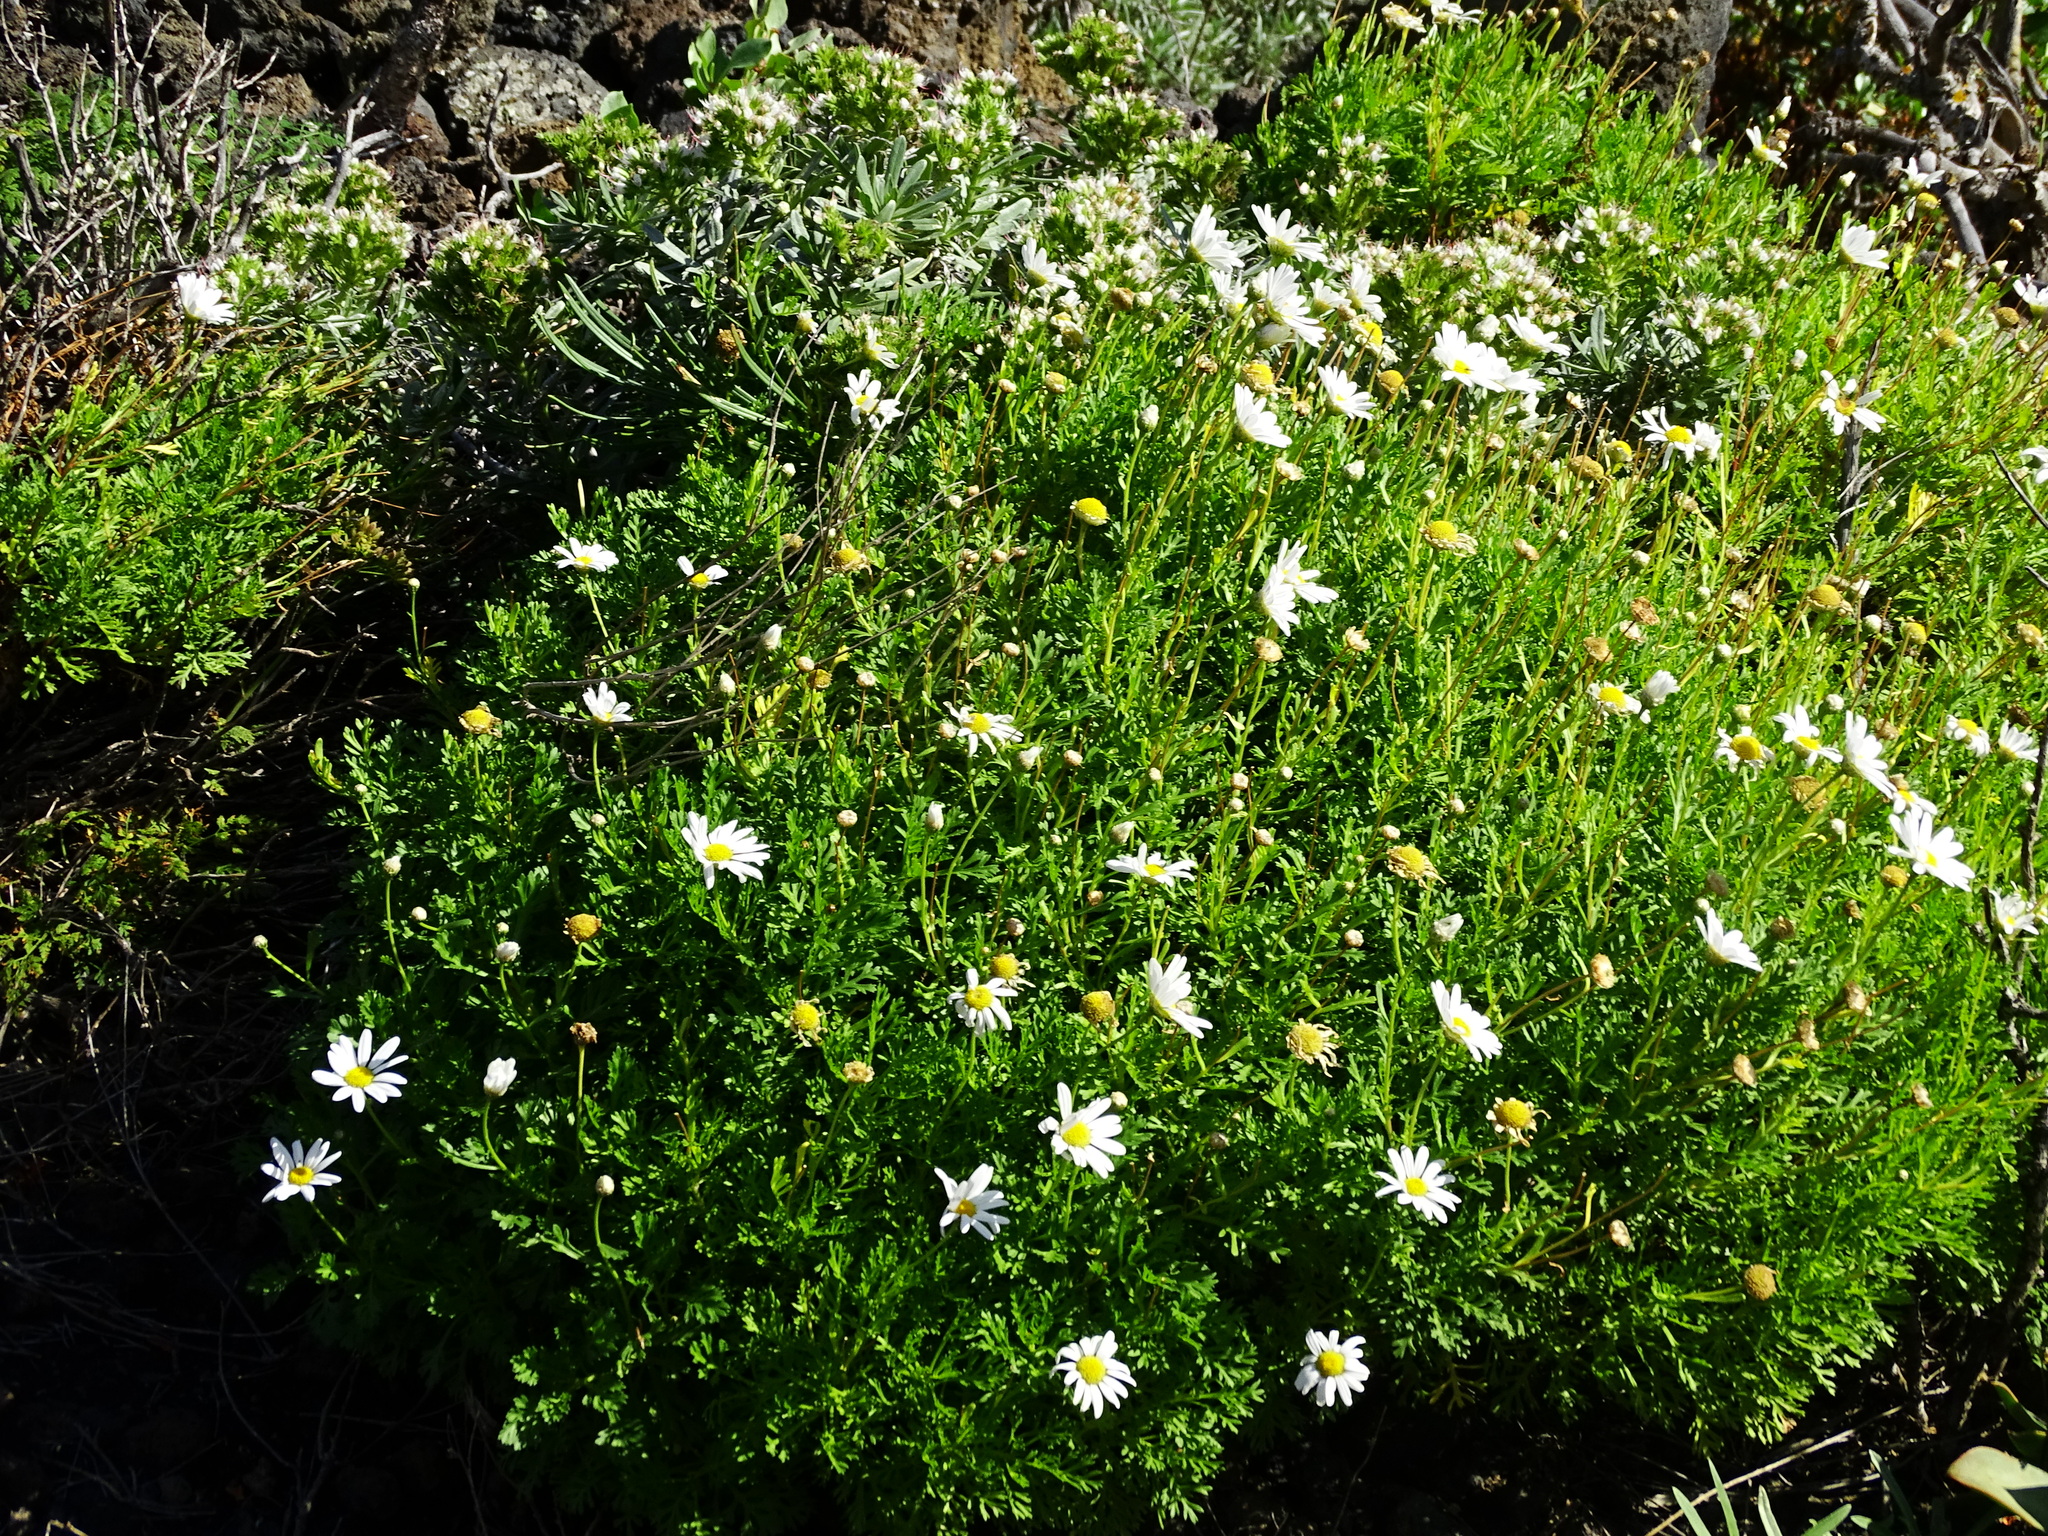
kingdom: Plantae
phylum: Tracheophyta
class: Magnoliopsida
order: Asterales
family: Asteraceae
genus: Argyranthemum
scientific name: Argyranthemum haouarytheum
